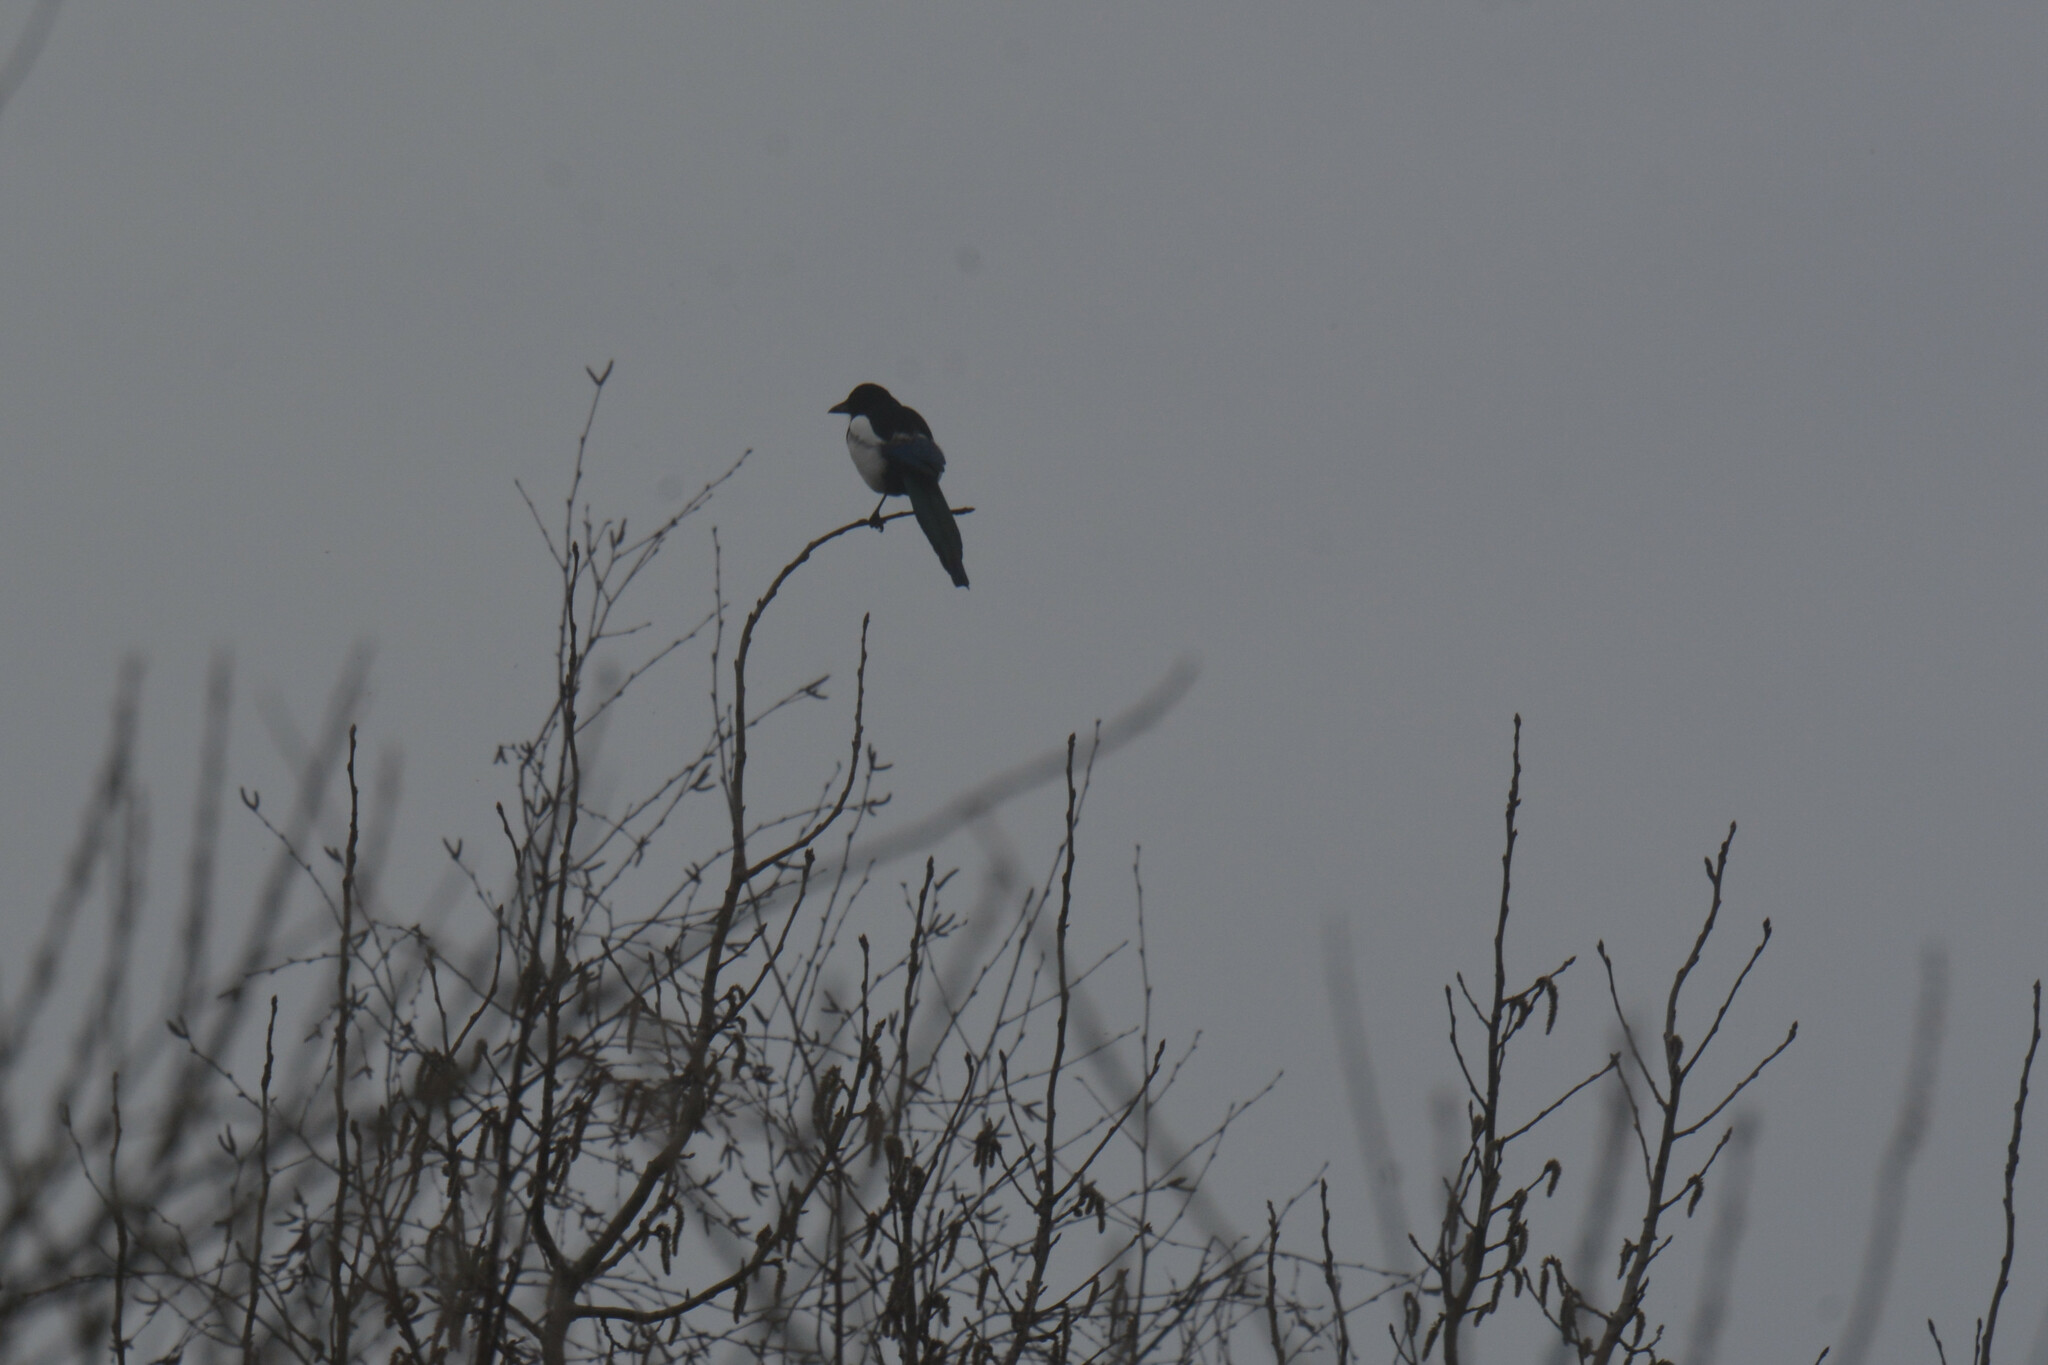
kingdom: Animalia
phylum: Chordata
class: Aves
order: Passeriformes
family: Corvidae
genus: Pica
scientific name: Pica pica
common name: Eurasian magpie
